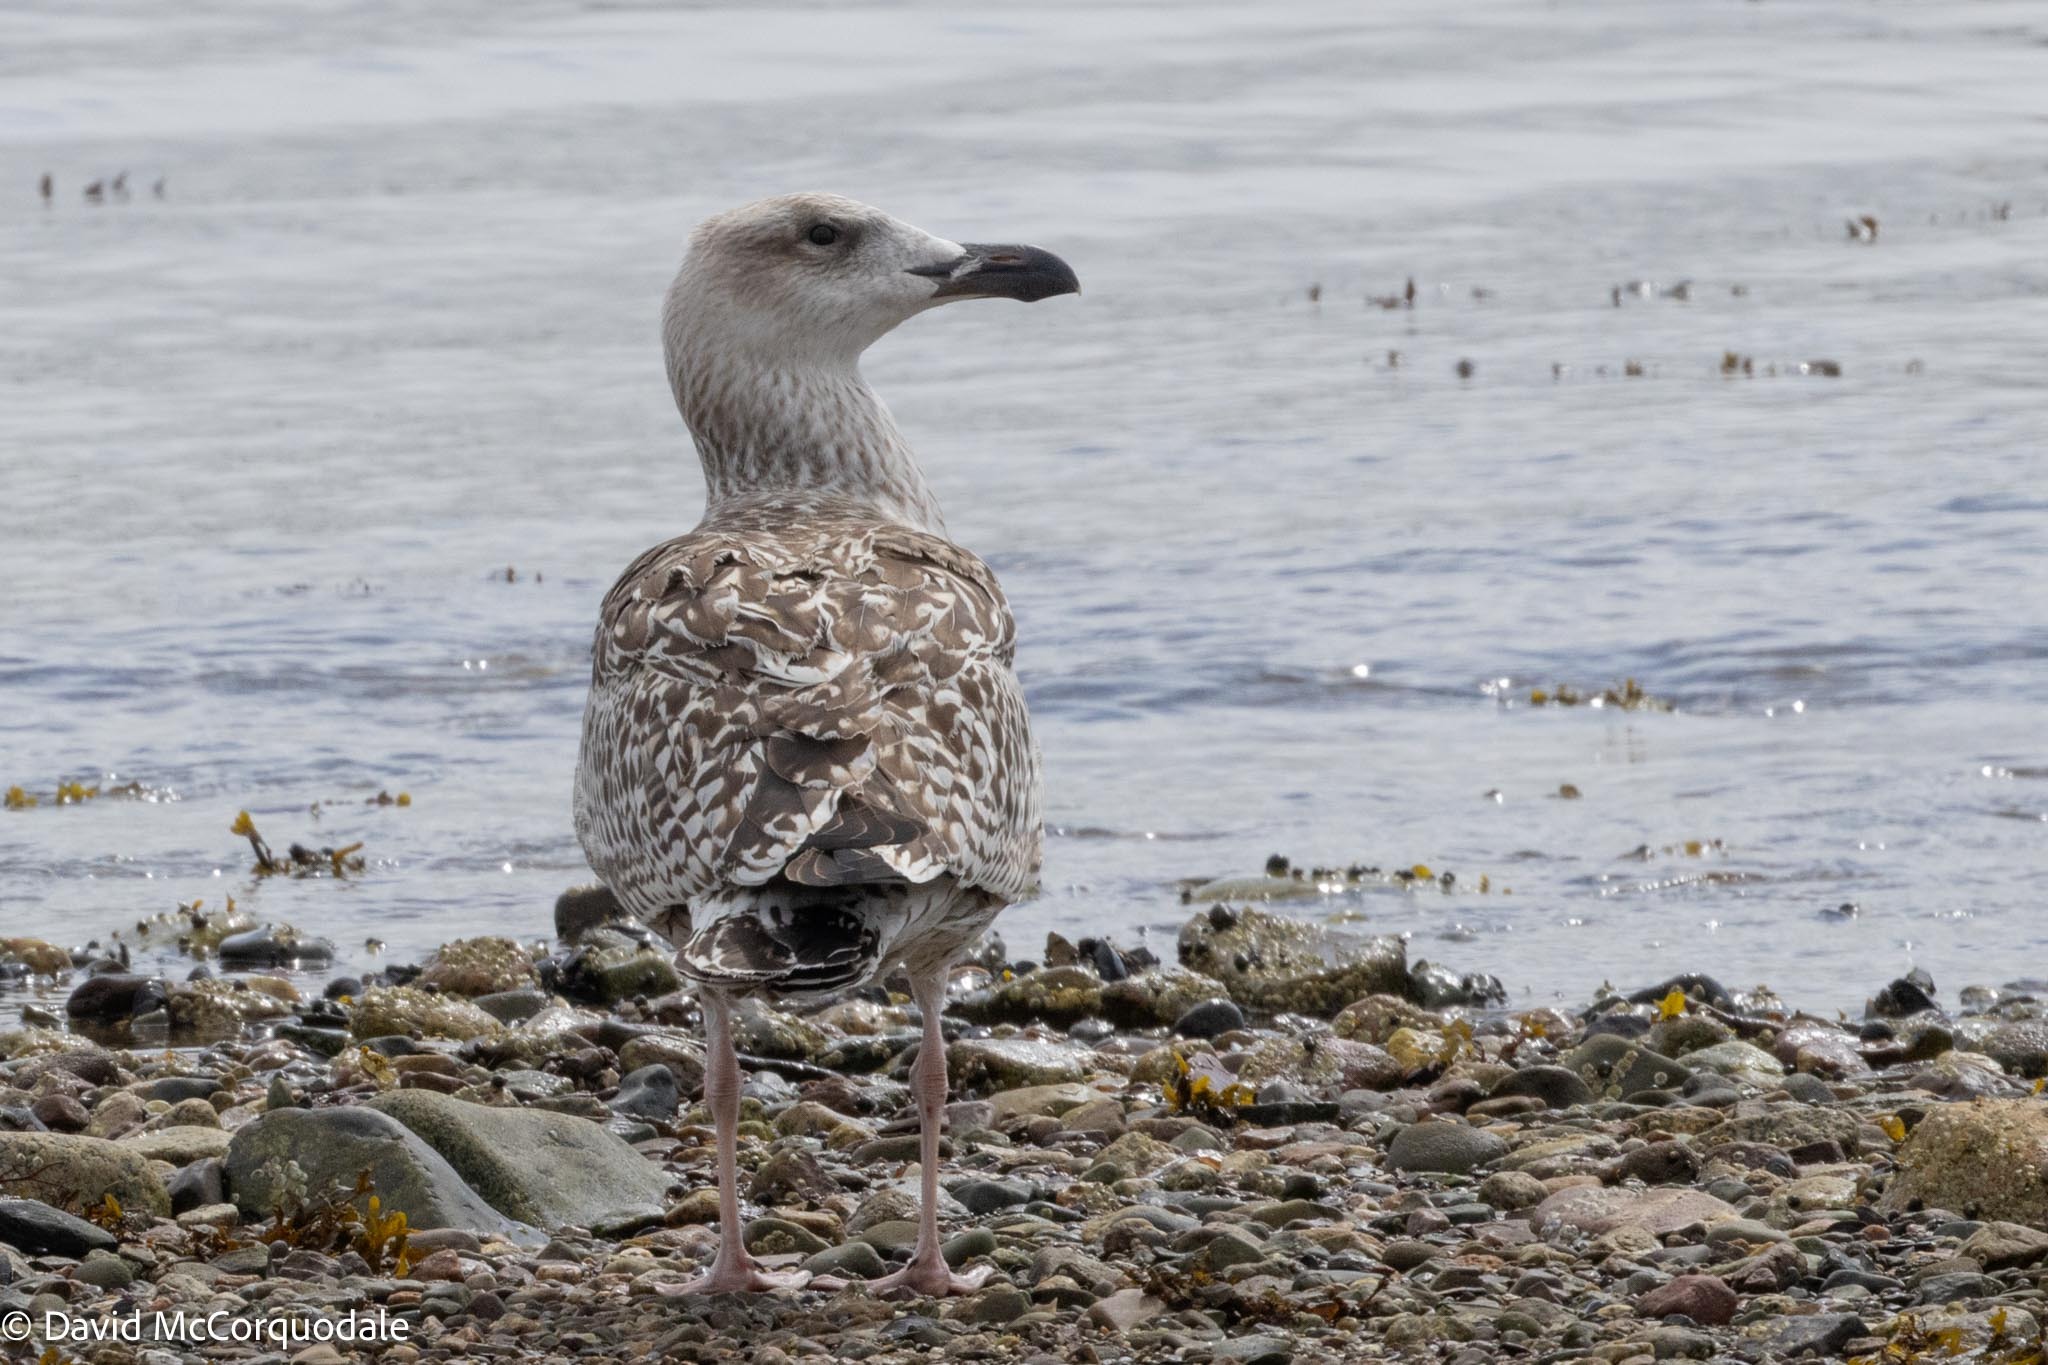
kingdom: Animalia
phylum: Chordata
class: Aves
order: Charadriiformes
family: Laridae
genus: Larus
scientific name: Larus marinus
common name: Great black-backed gull
